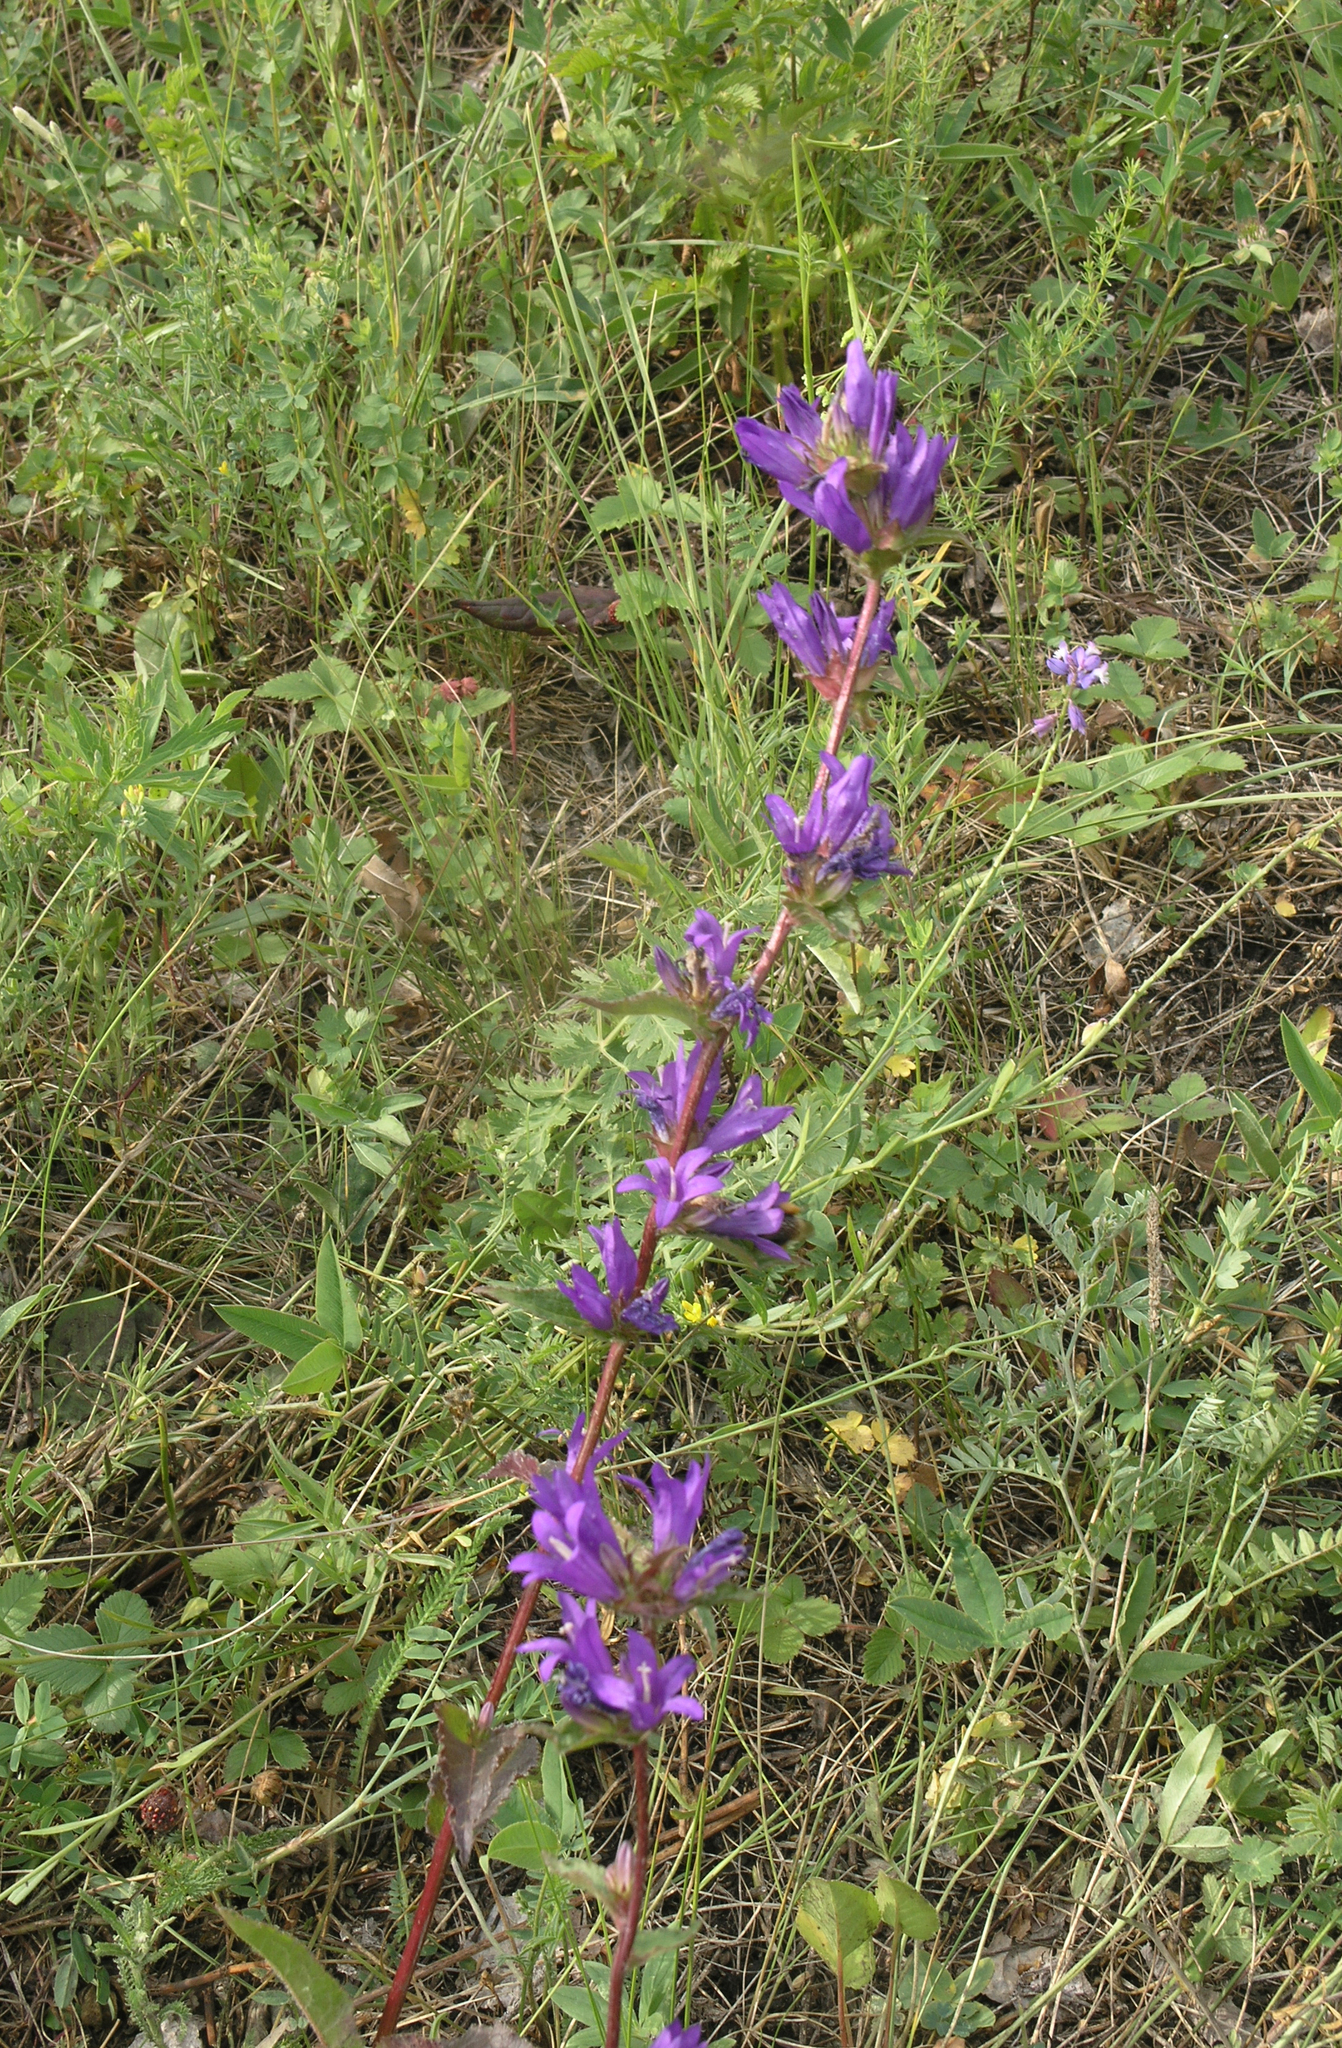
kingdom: Plantae
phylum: Tracheophyta
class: Magnoliopsida
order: Asterales
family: Campanulaceae
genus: Campanula
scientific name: Campanula glomerata
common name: Clustered bellflower
